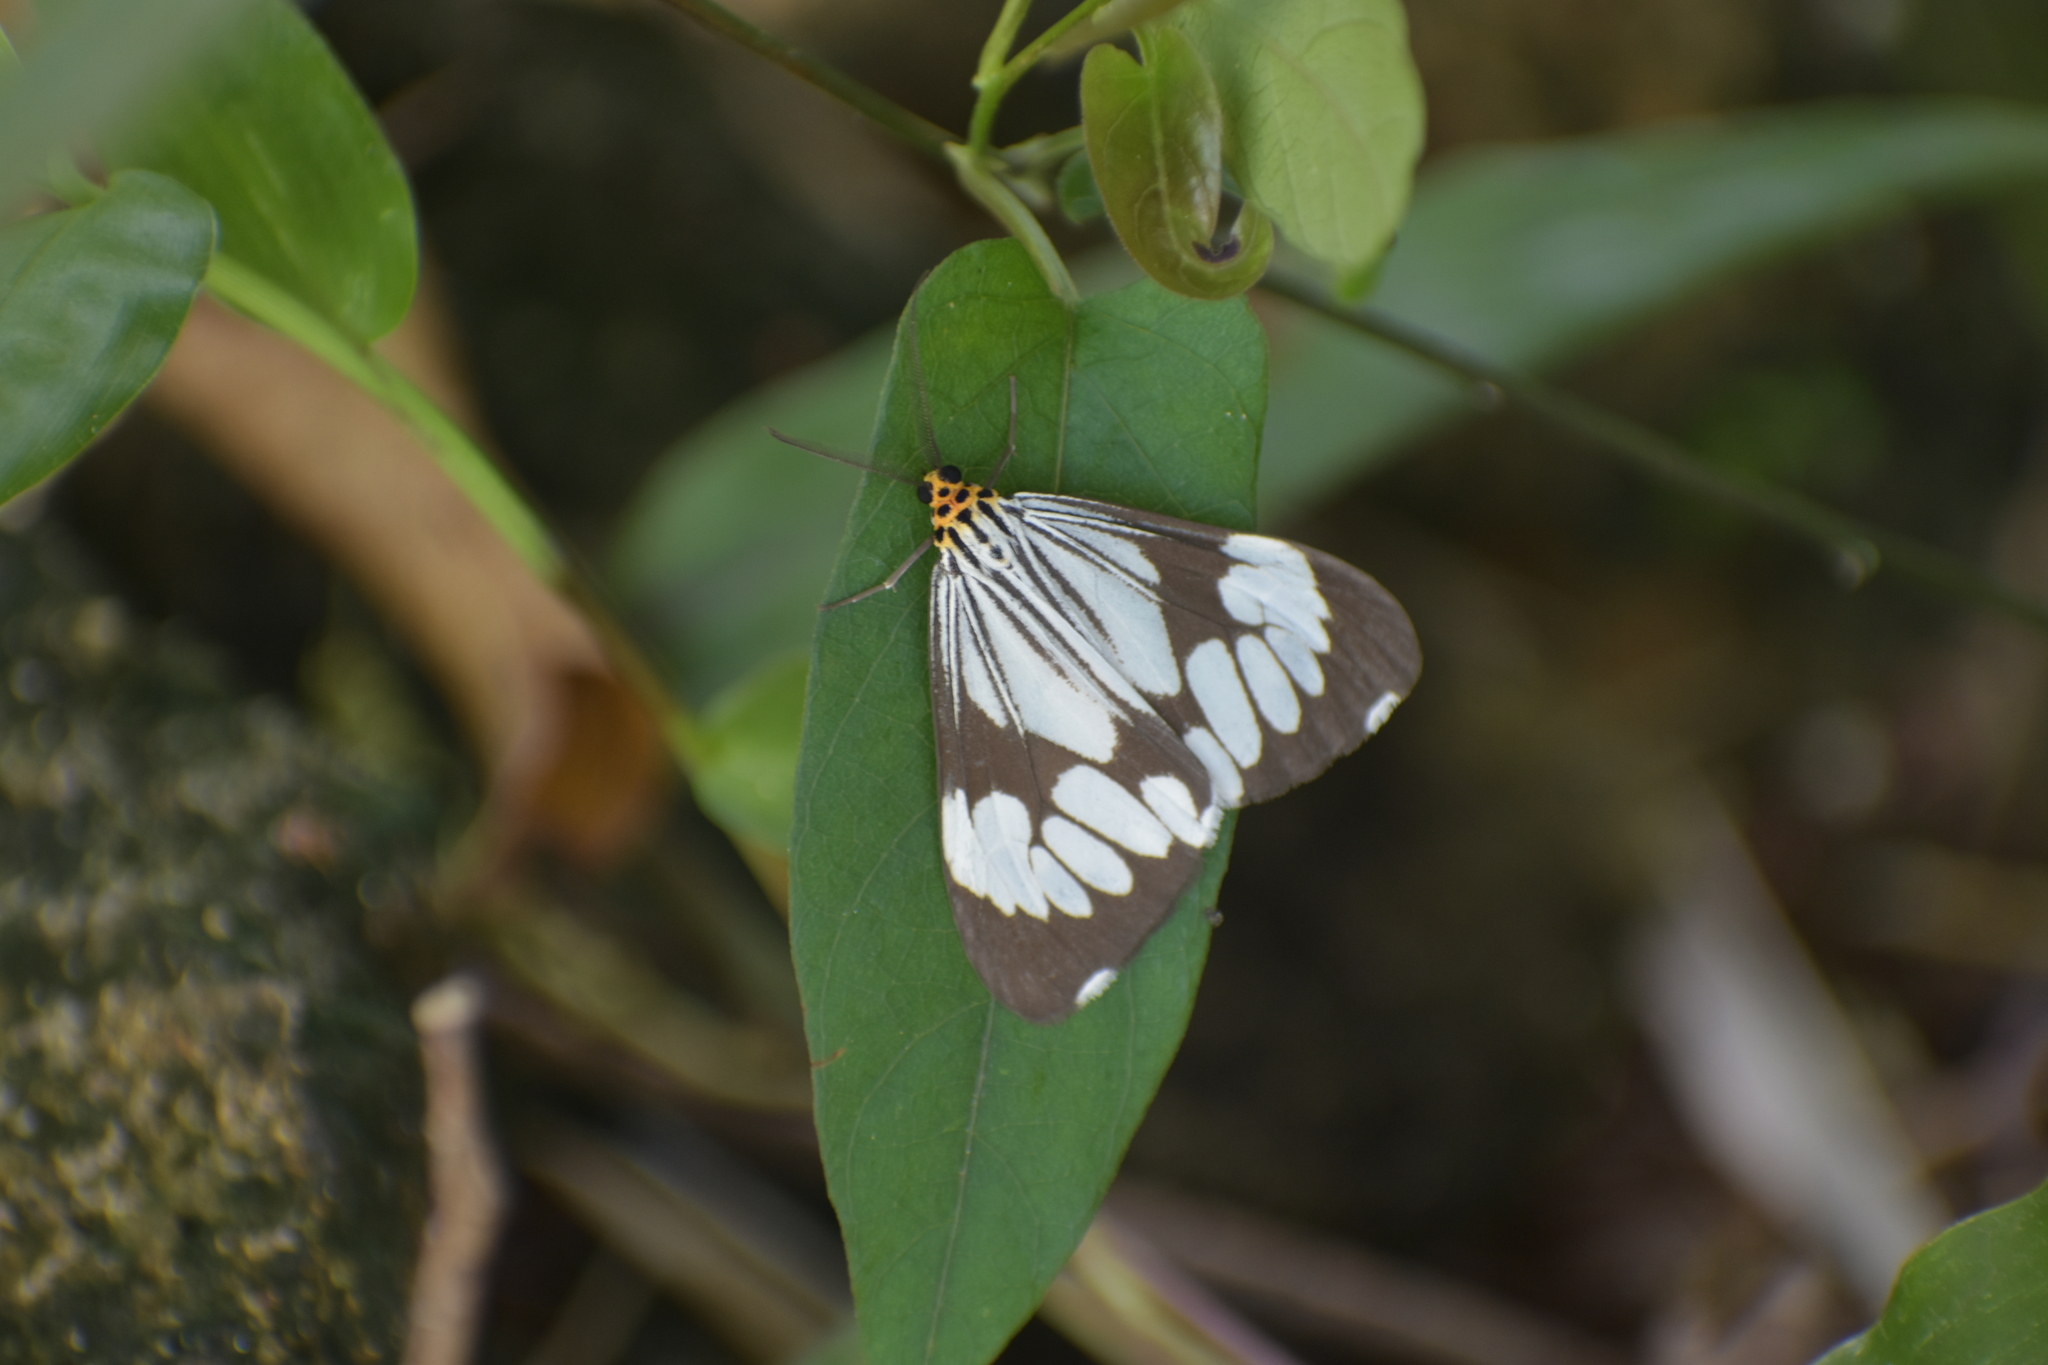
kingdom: Animalia
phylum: Arthropoda
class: Insecta
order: Lepidoptera
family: Erebidae
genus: Nyctemera
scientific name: Nyctemera coleta
